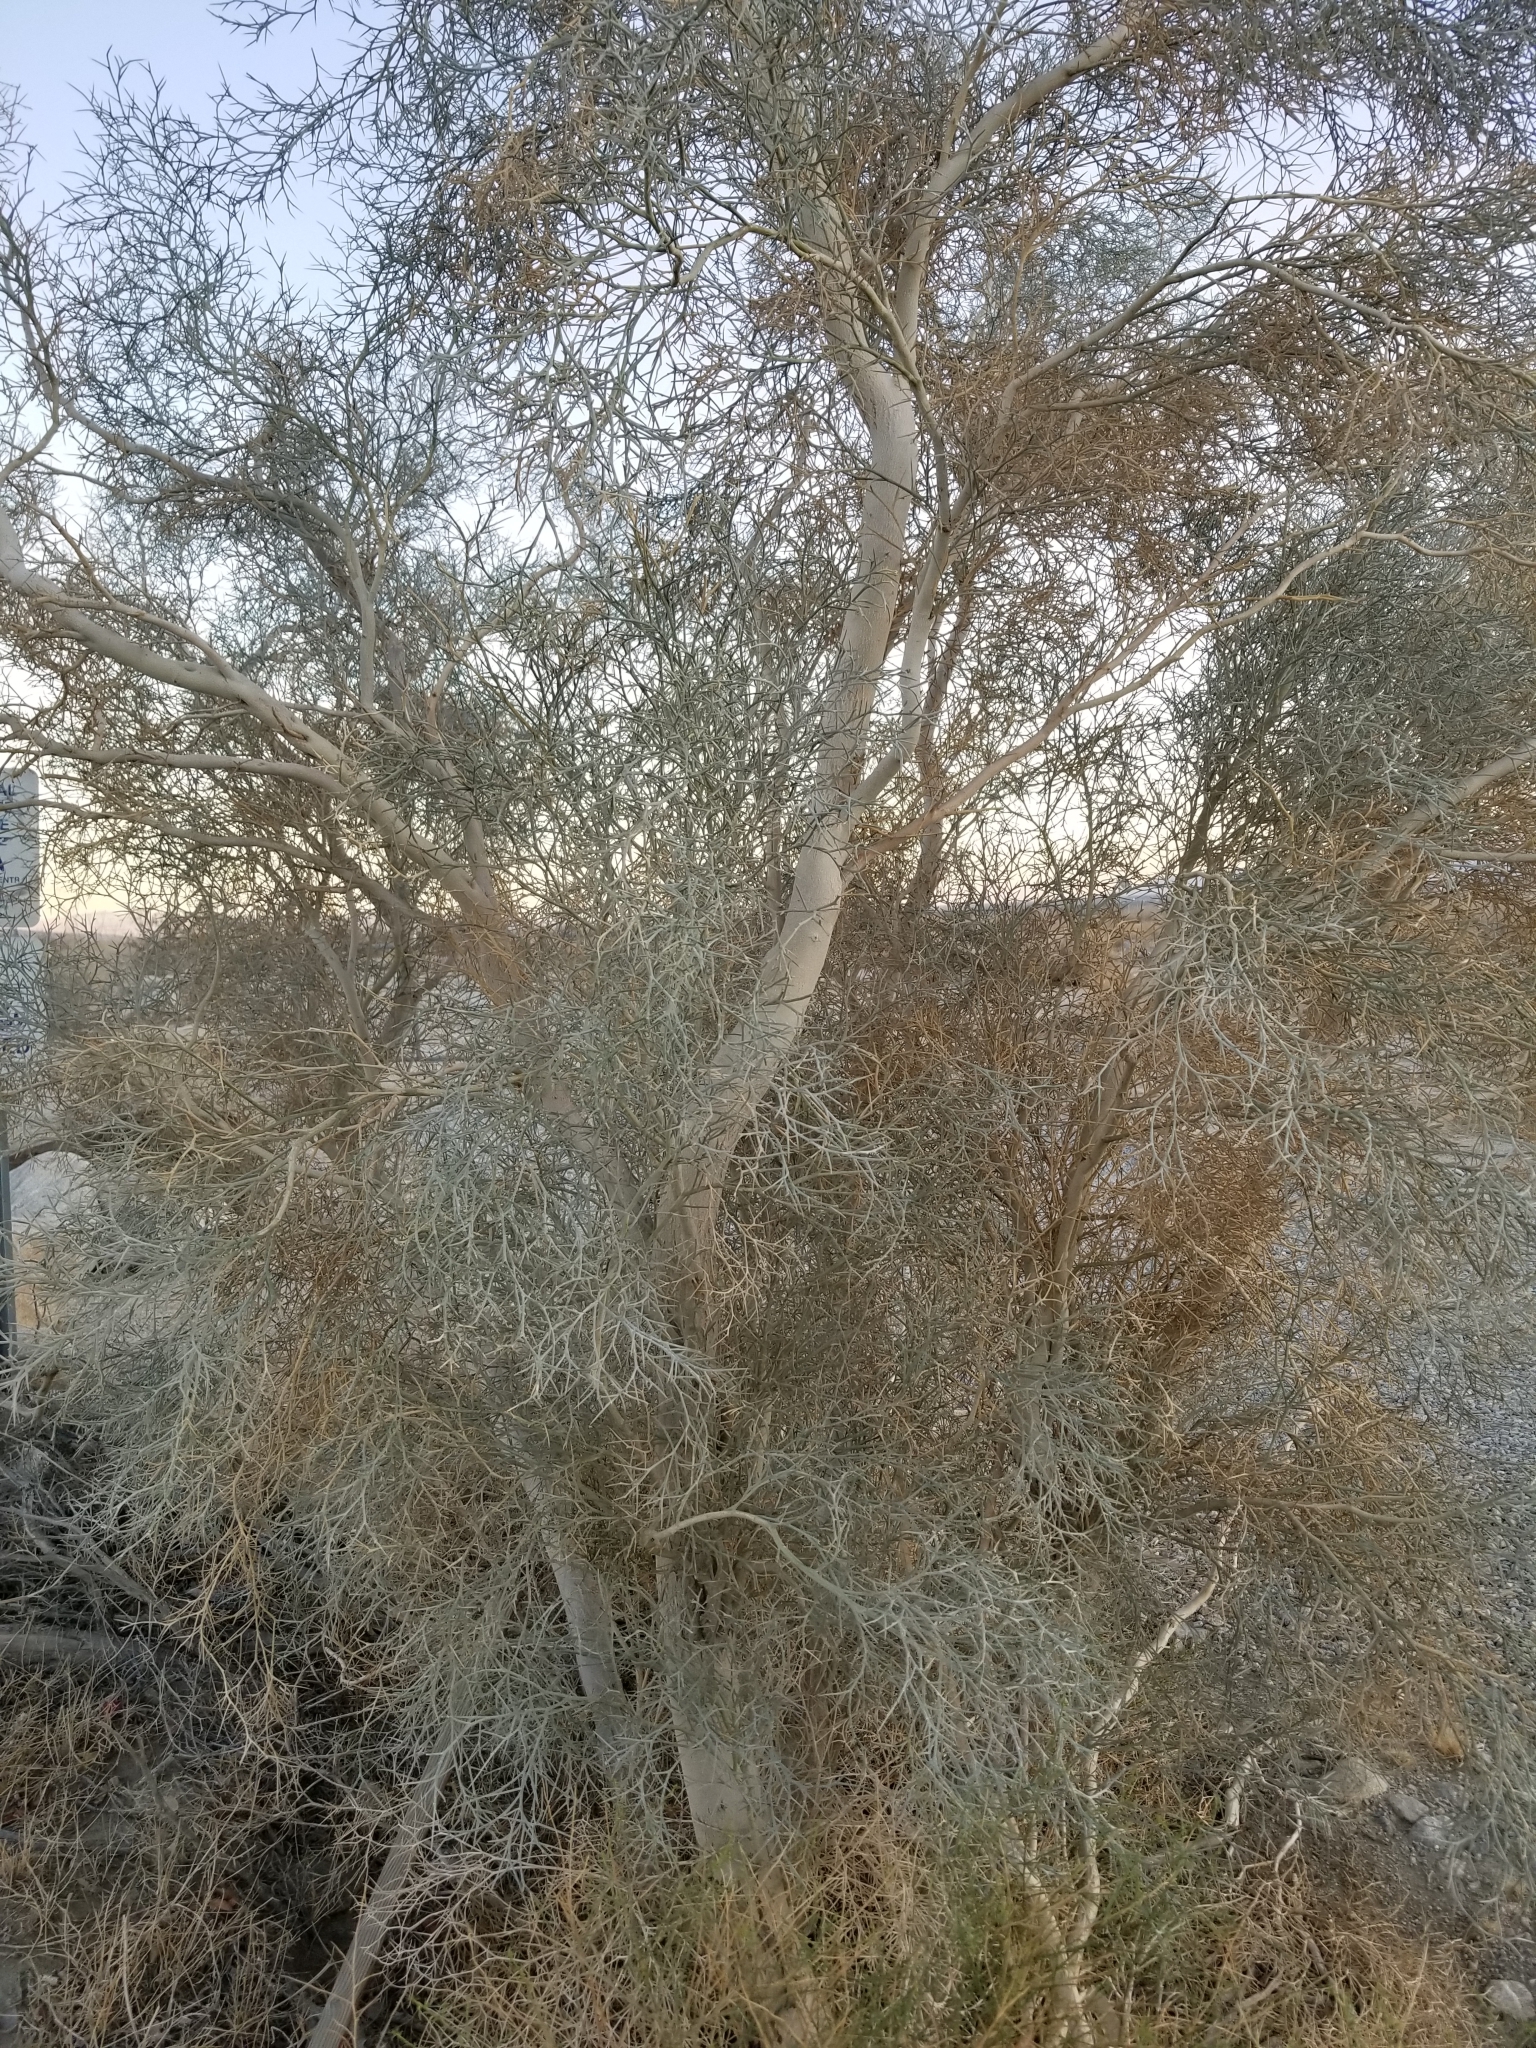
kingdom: Plantae
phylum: Tracheophyta
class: Magnoliopsida
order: Fabales
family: Fabaceae
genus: Psorothamnus
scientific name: Psorothamnus spinosus
